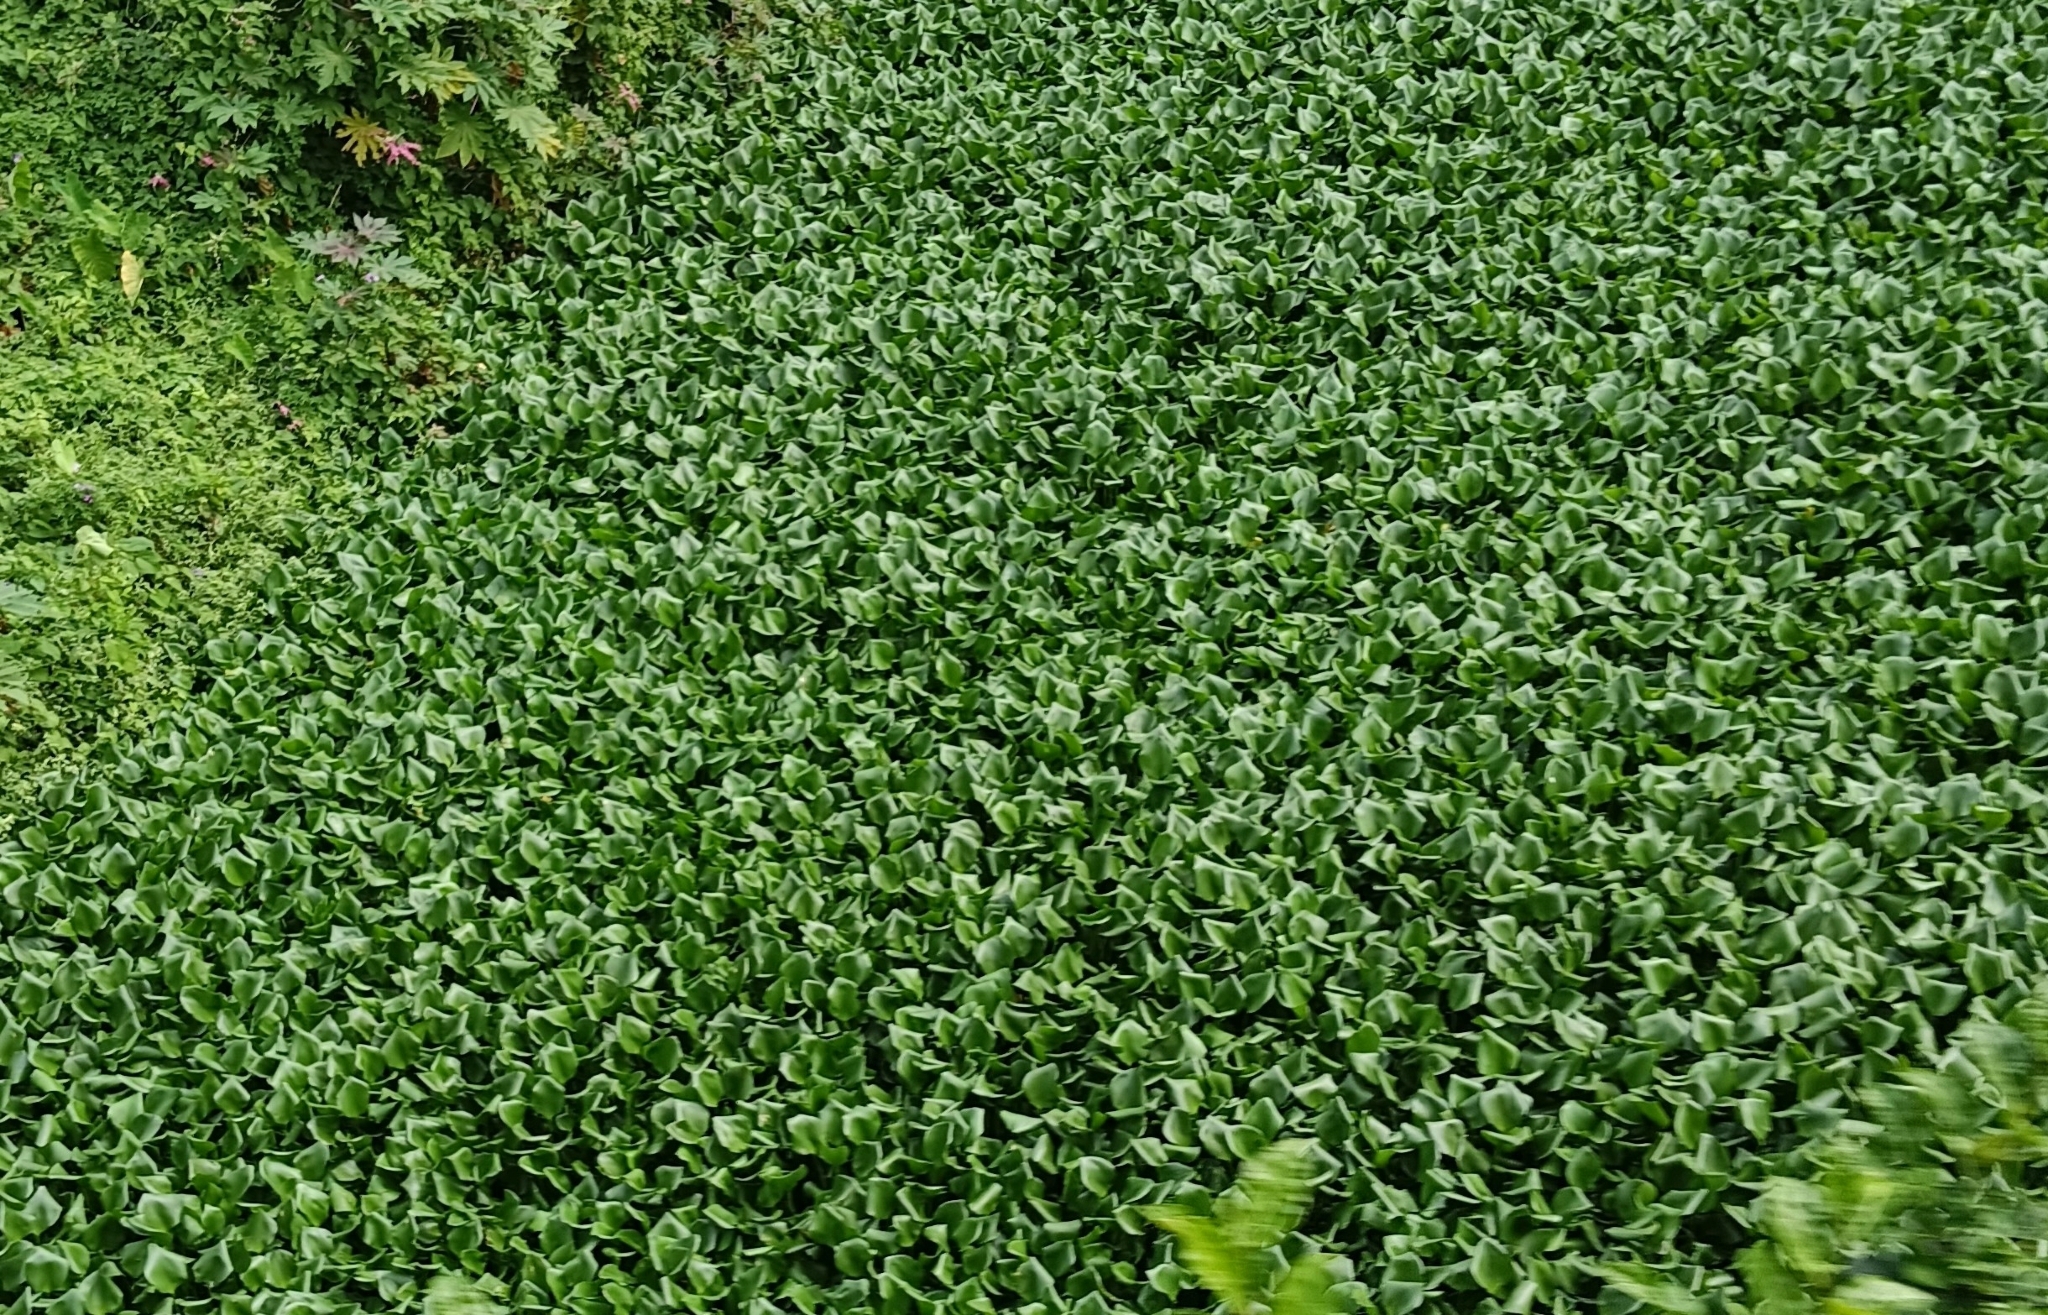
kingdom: Plantae
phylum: Tracheophyta
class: Liliopsida
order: Commelinales
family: Pontederiaceae
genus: Pontederia
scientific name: Pontederia crassipes
